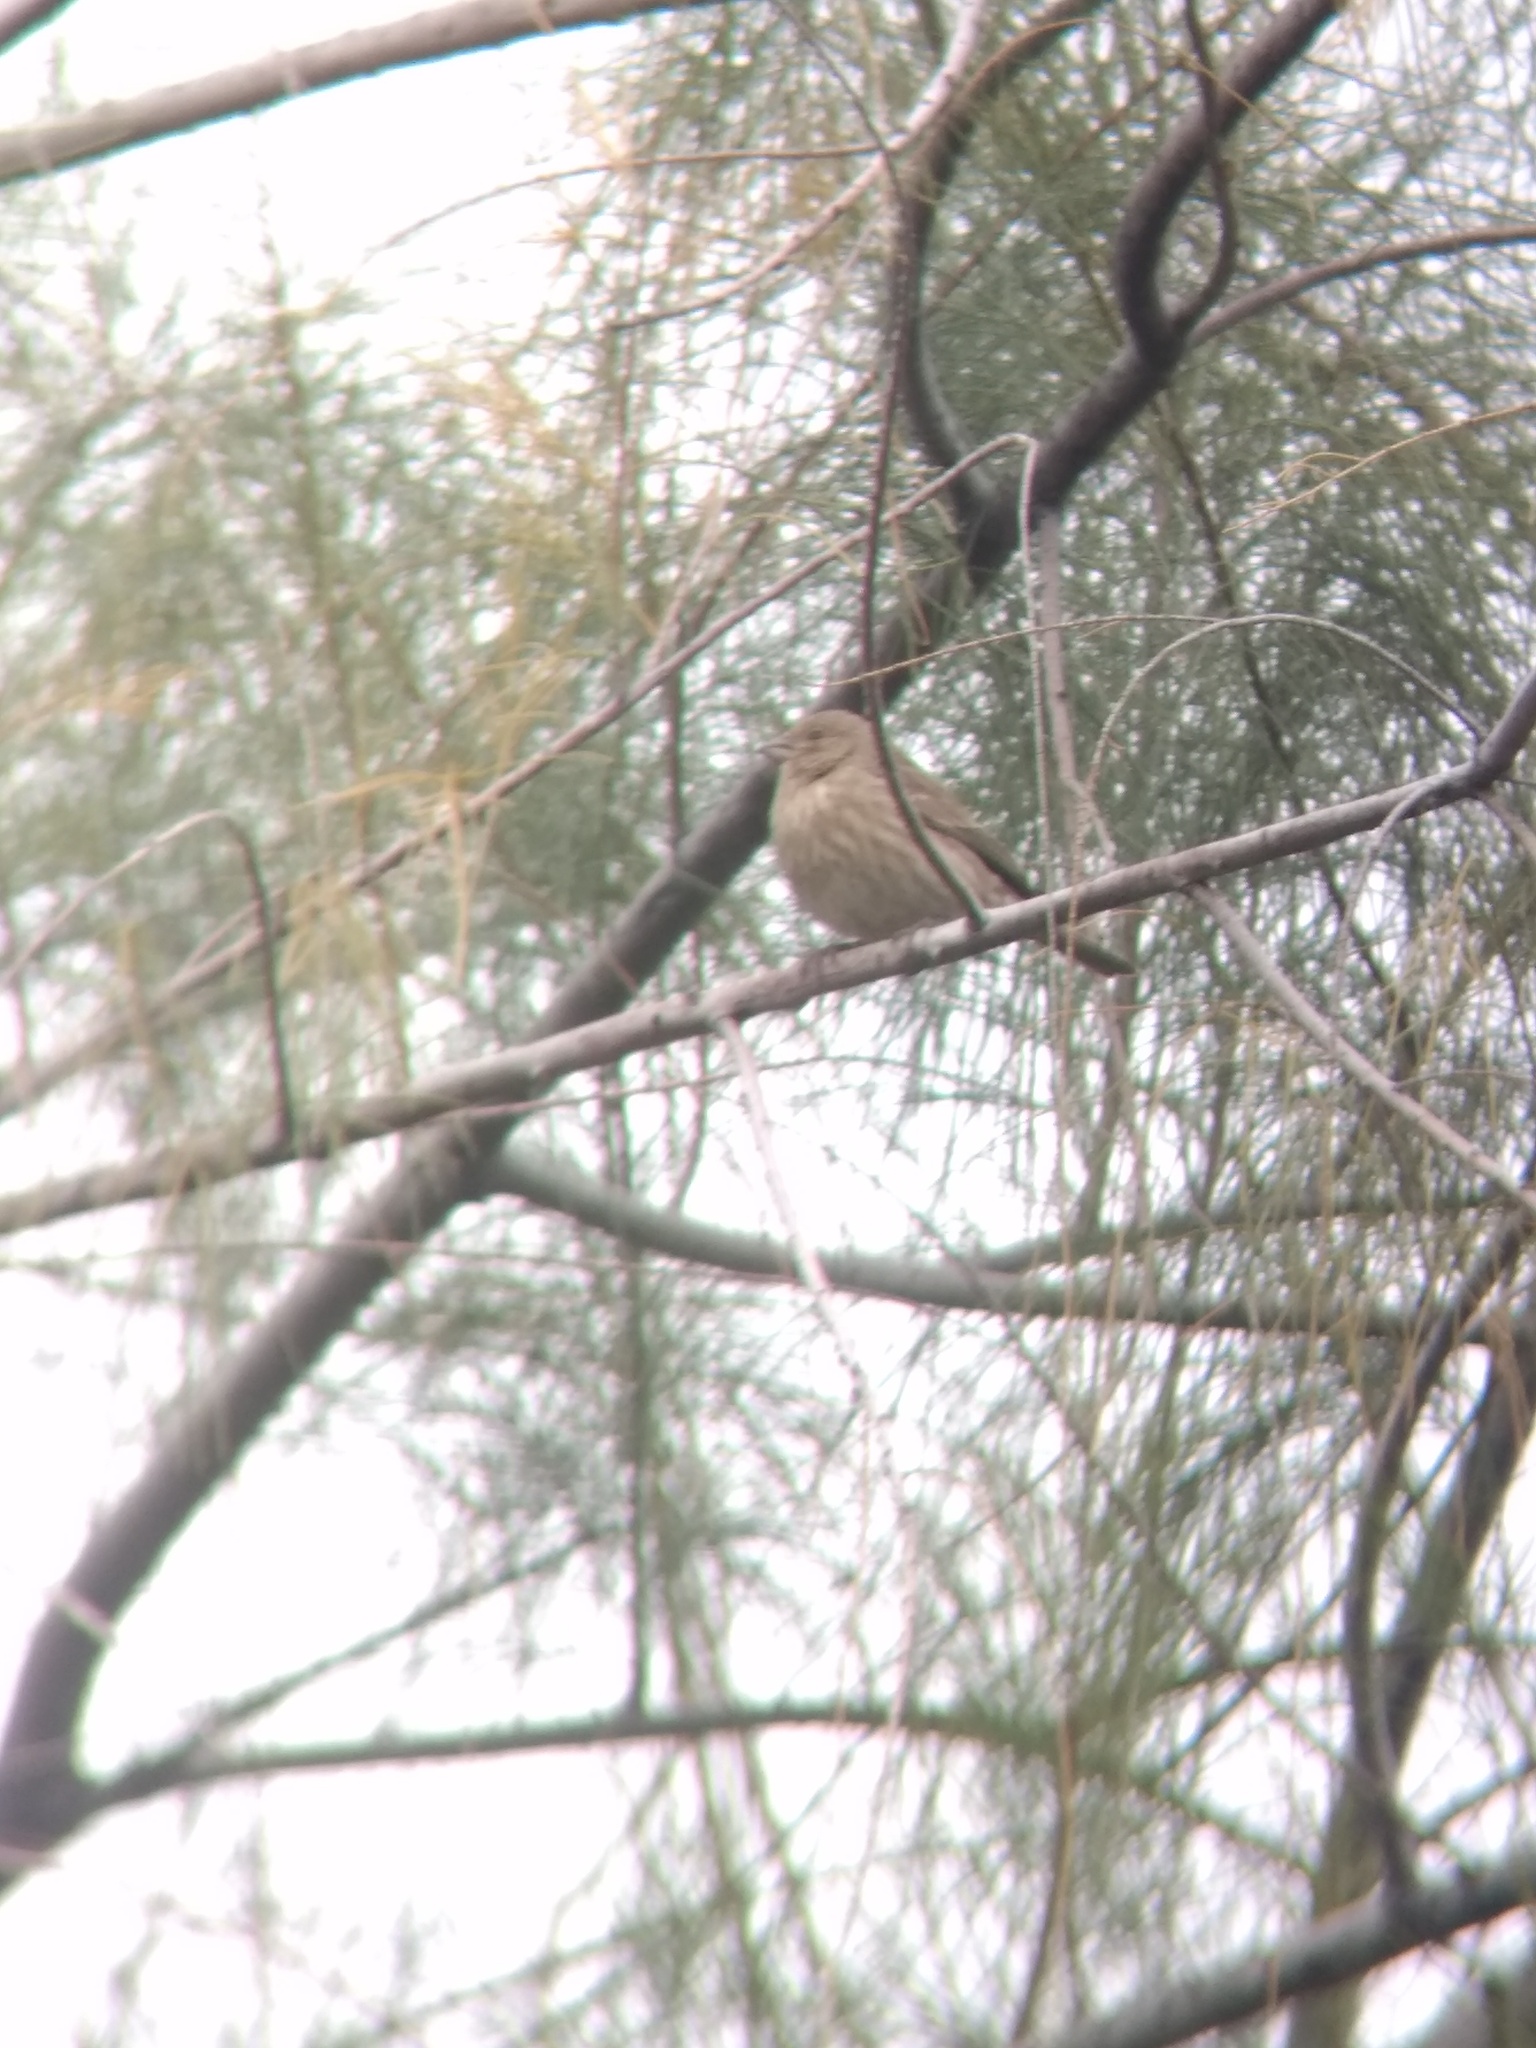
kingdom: Animalia
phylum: Chordata
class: Aves
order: Passeriformes
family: Fringillidae
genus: Haemorhous
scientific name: Haemorhous mexicanus
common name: House finch
